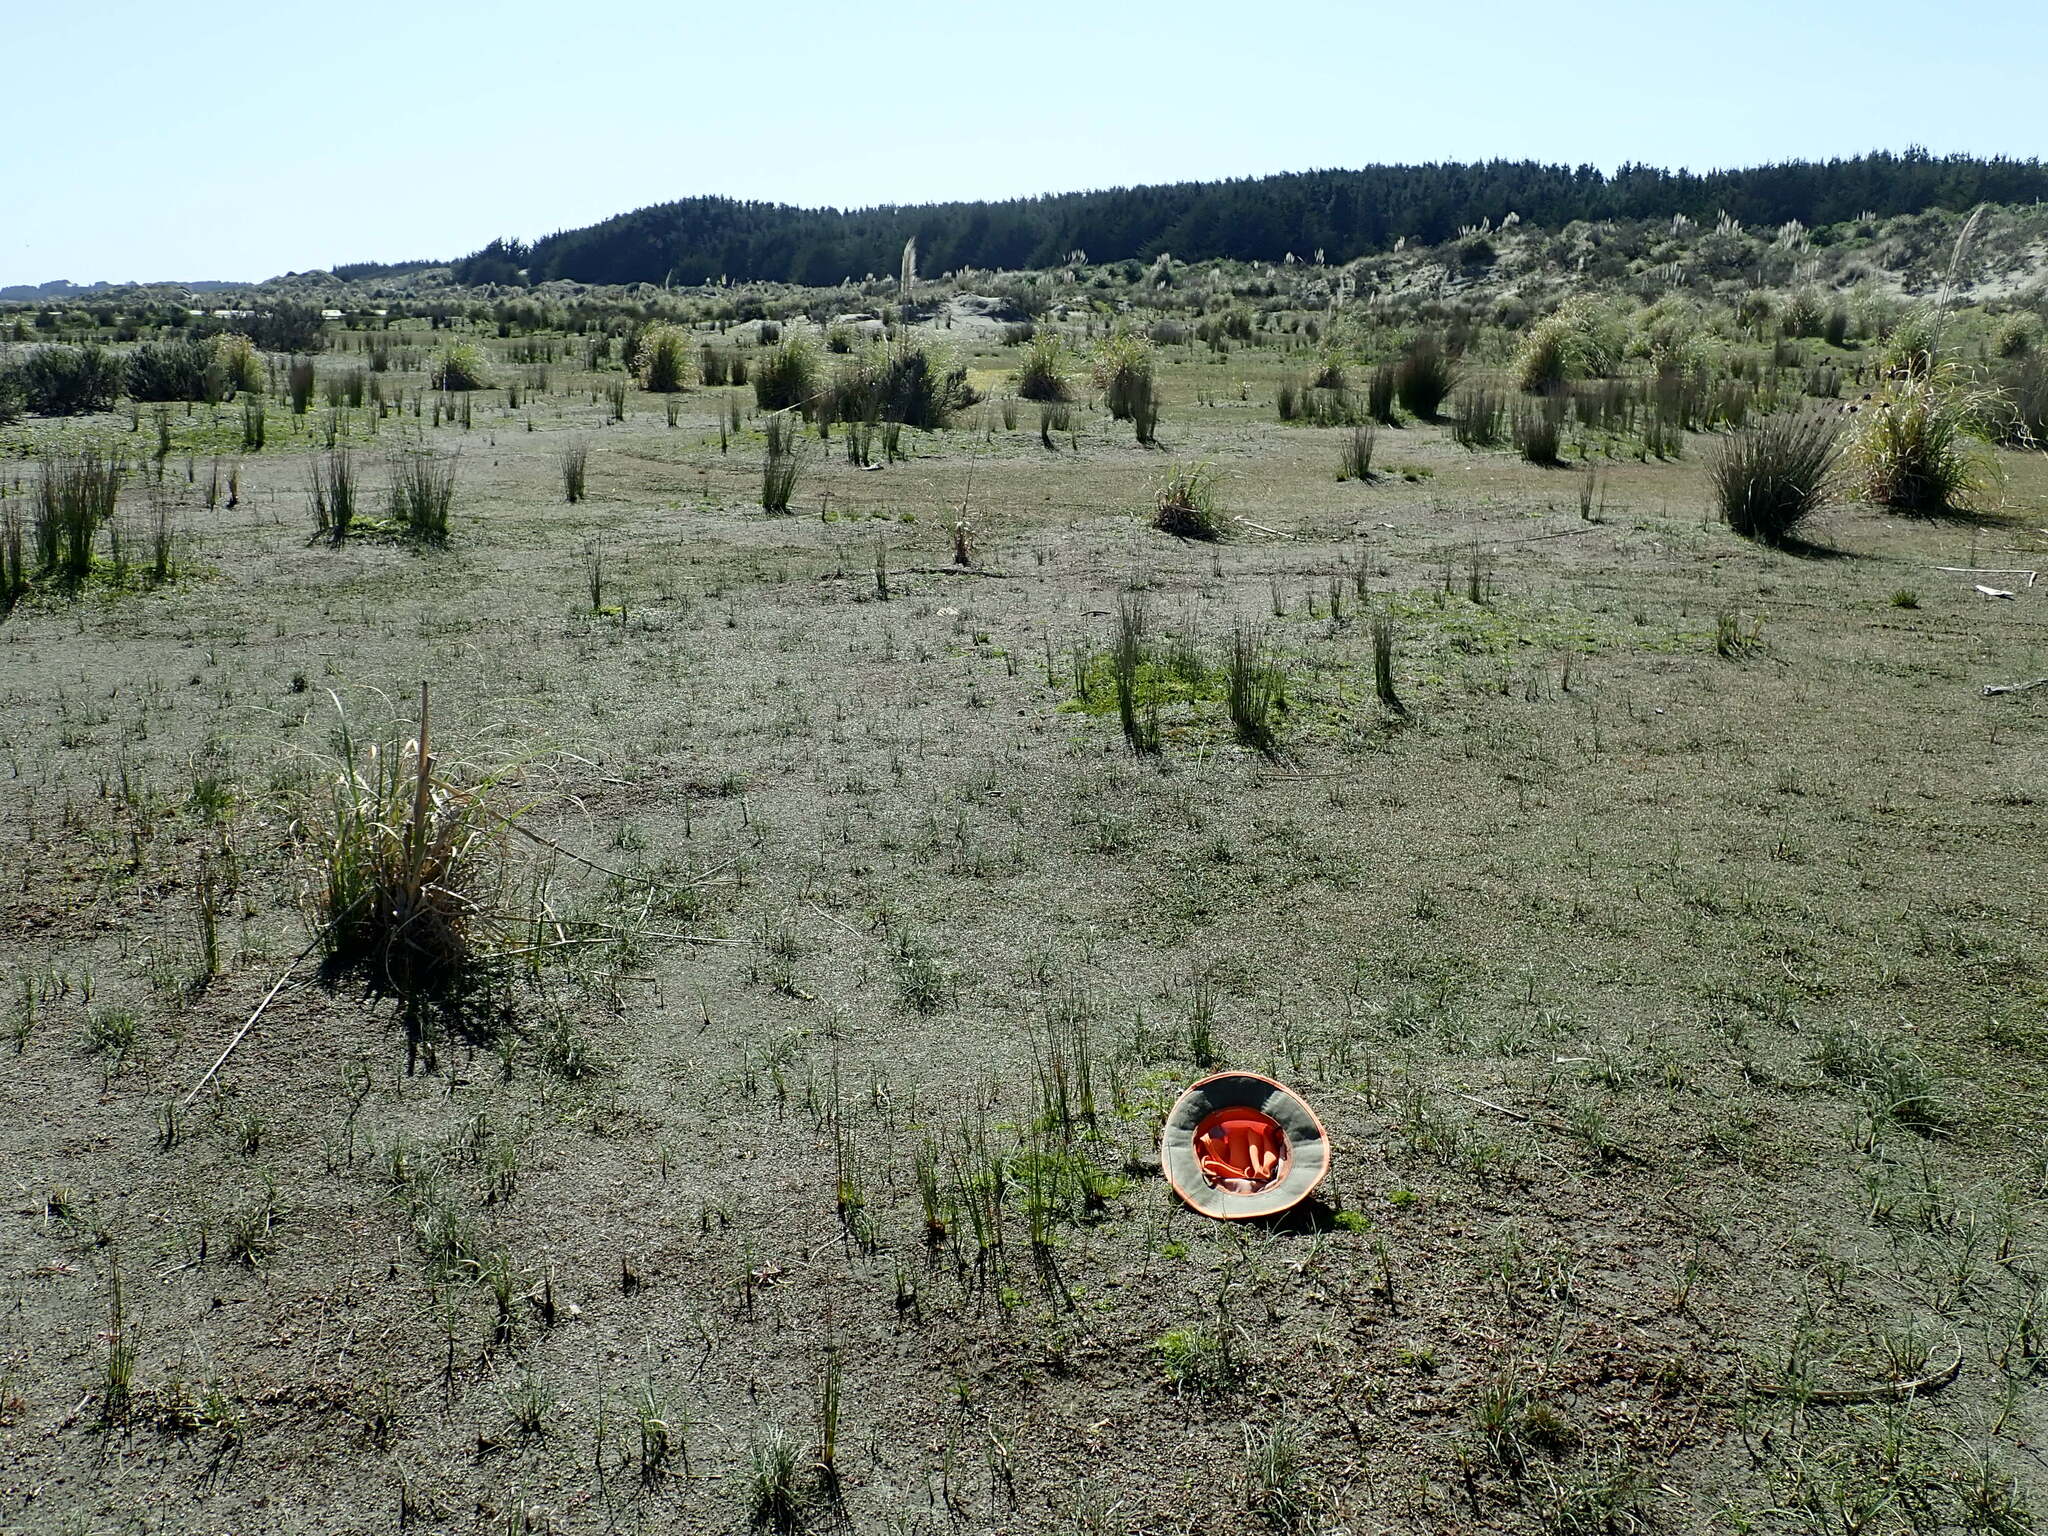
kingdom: Plantae
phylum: Tracheophyta
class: Magnoliopsida
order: Caryophyllales
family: Caryophyllaceae
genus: Sagina
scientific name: Sagina procumbens
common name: Procumbent pearlwort
